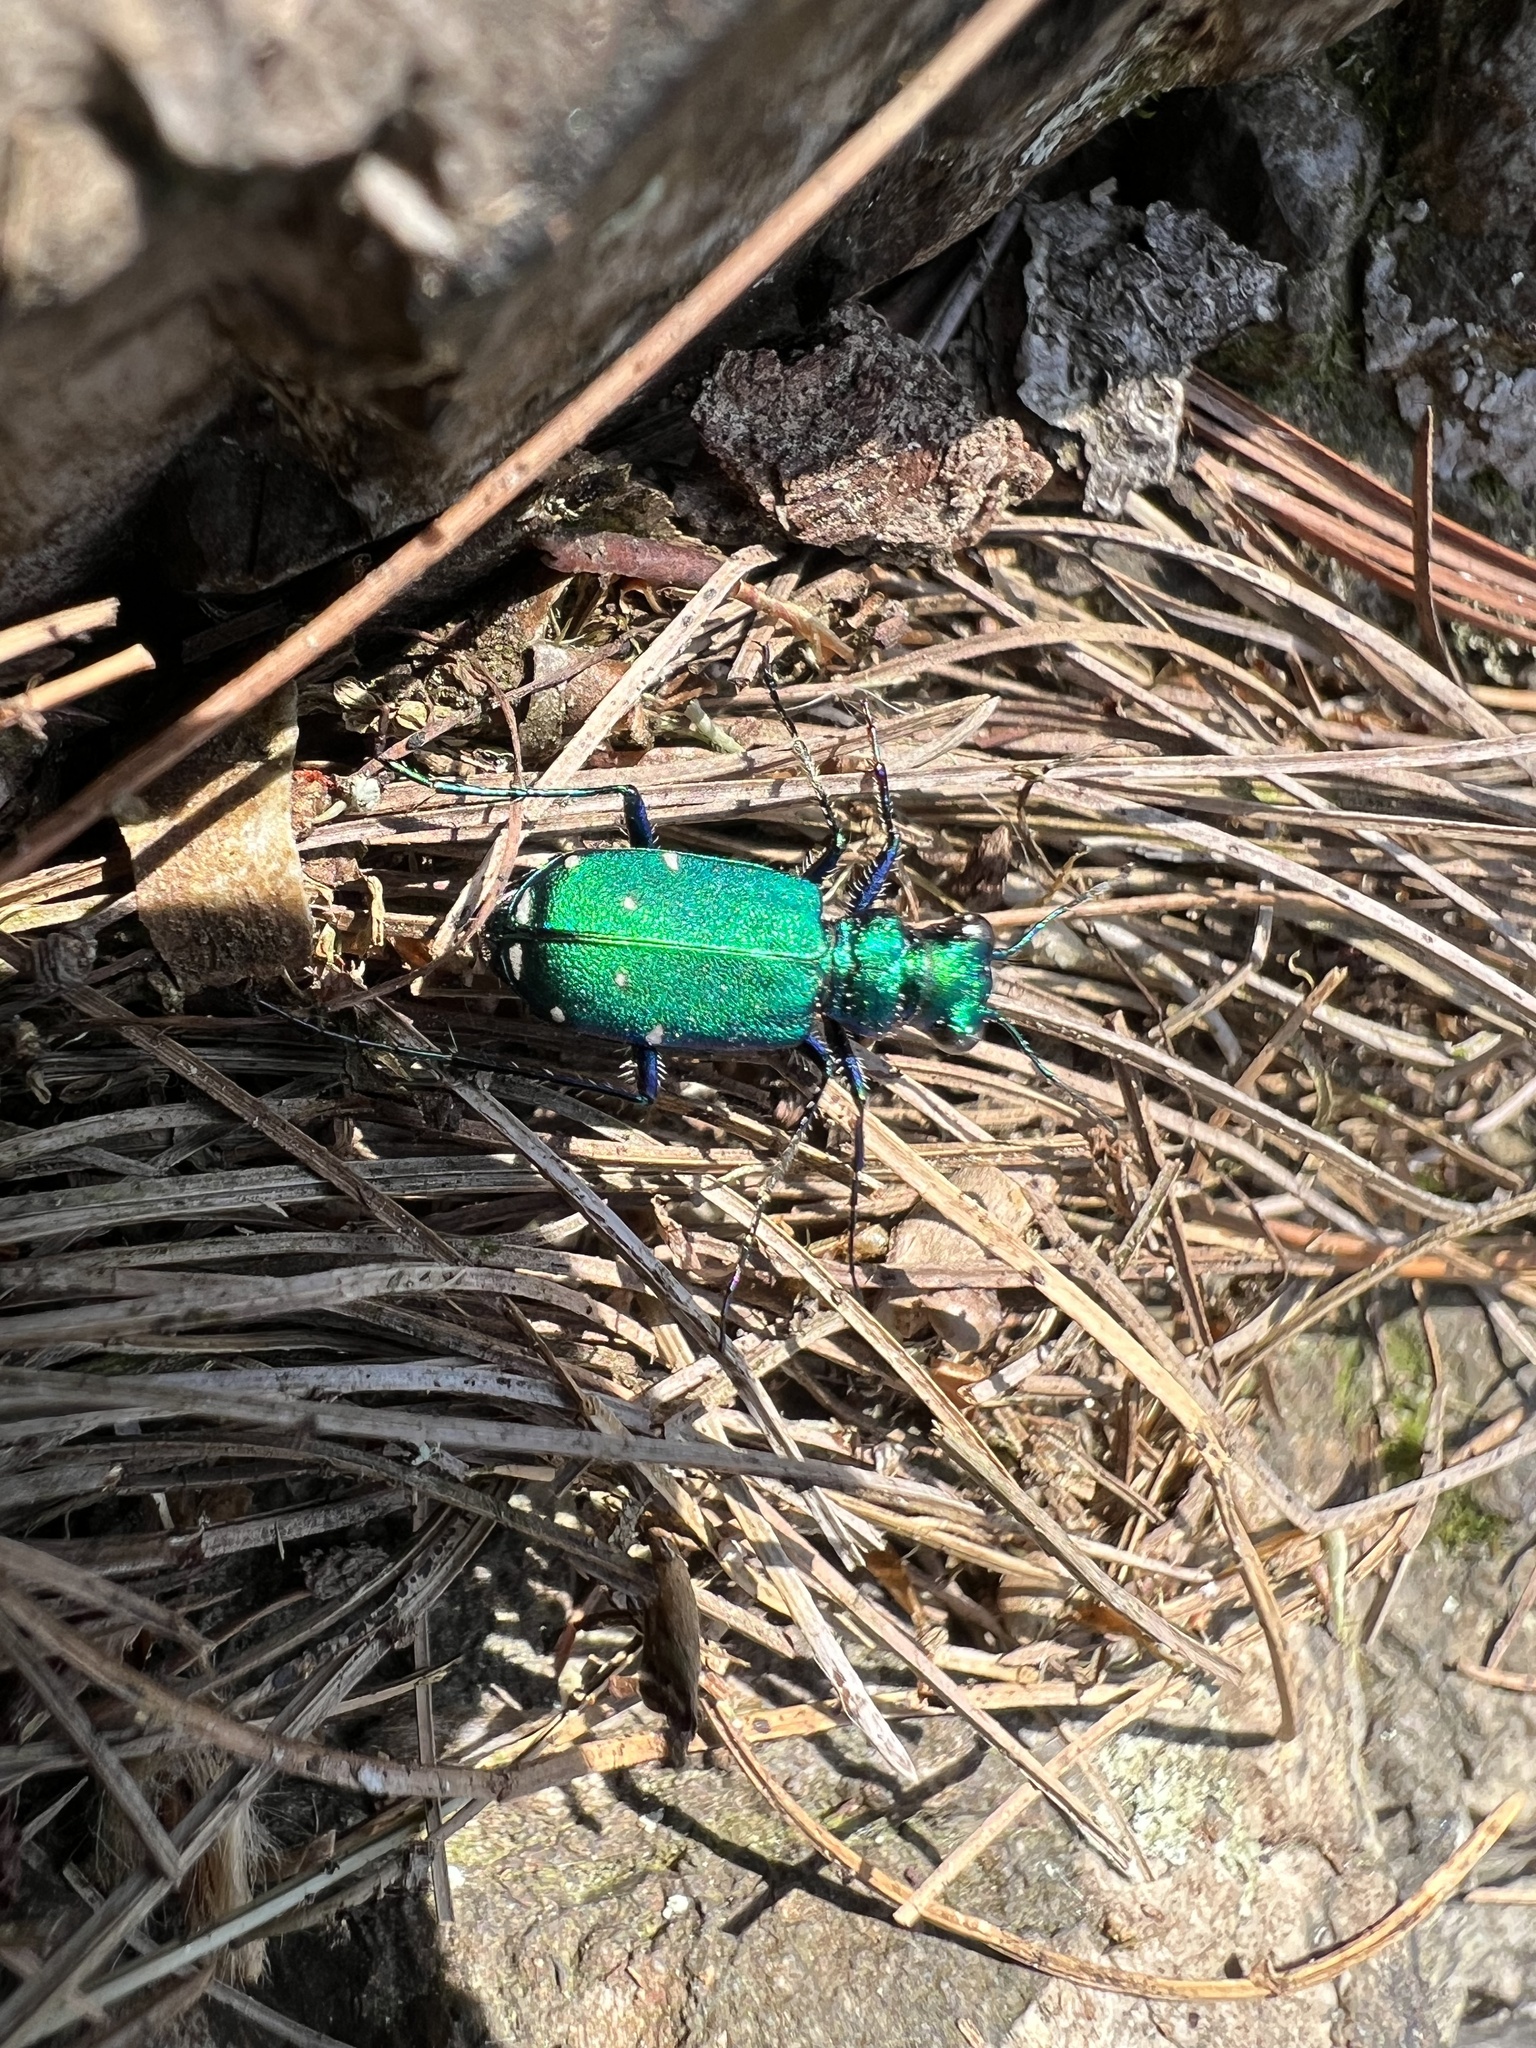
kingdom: Animalia
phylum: Arthropoda
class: Insecta
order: Coleoptera
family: Carabidae
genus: Cicindela
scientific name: Cicindela sexguttata
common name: Six-spotted tiger beetle
